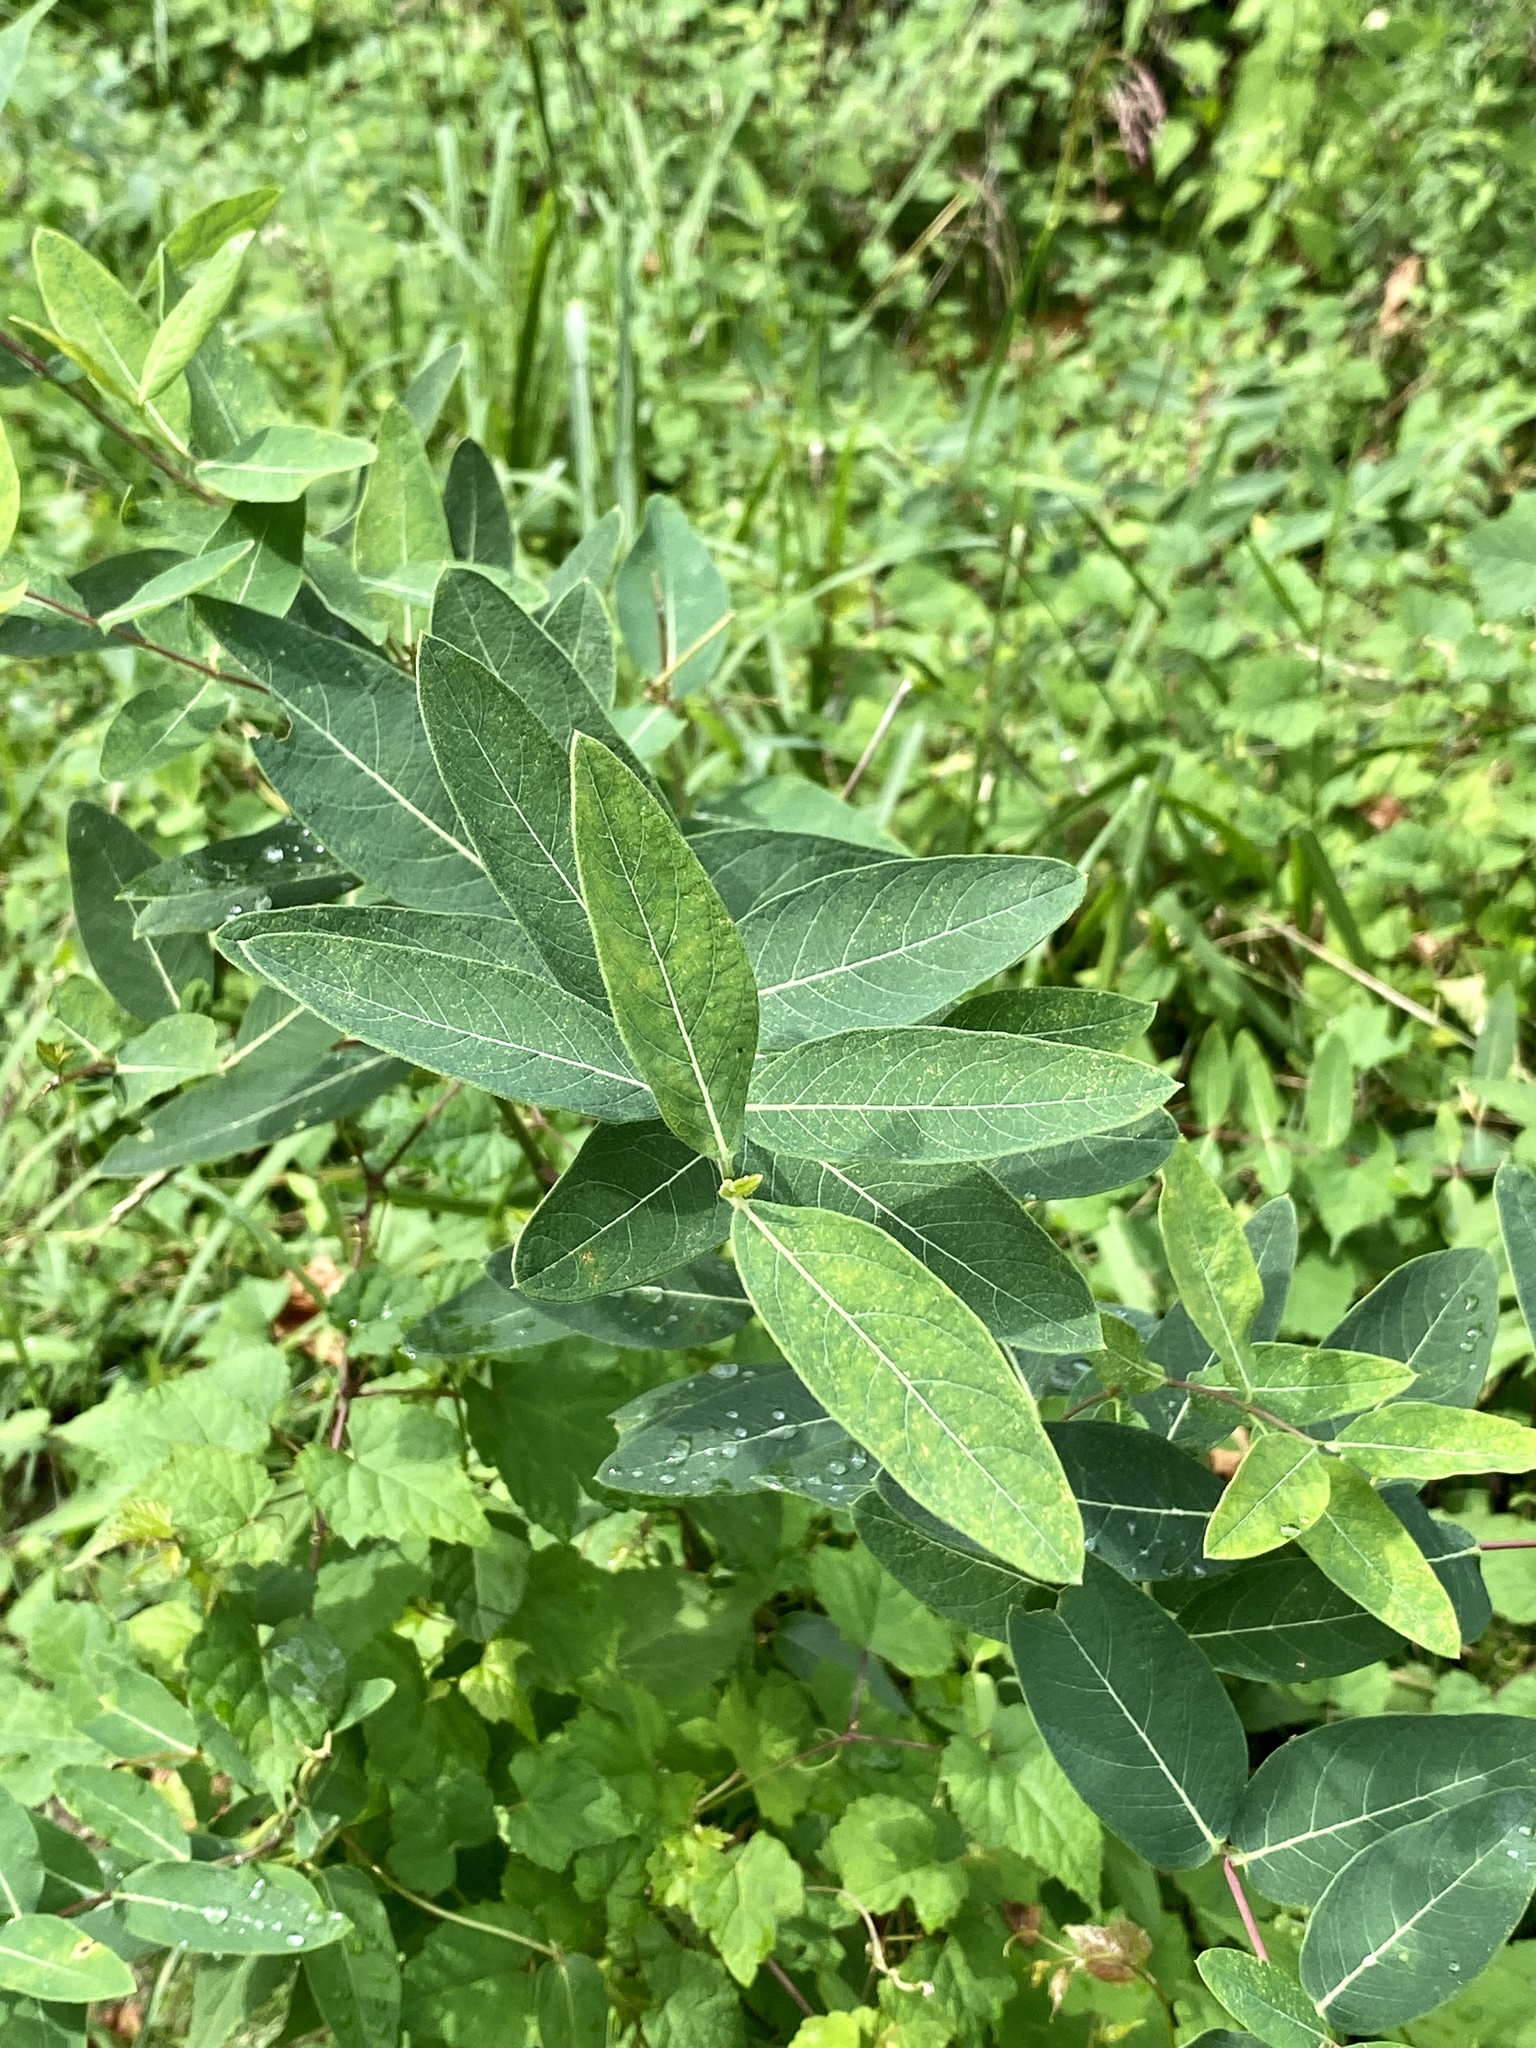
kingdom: Plantae
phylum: Tracheophyta
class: Magnoliopsida
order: Gentianales
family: Apocynaceae
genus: Apocynum
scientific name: Apocynum cannabinum
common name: Hemp dogbane
